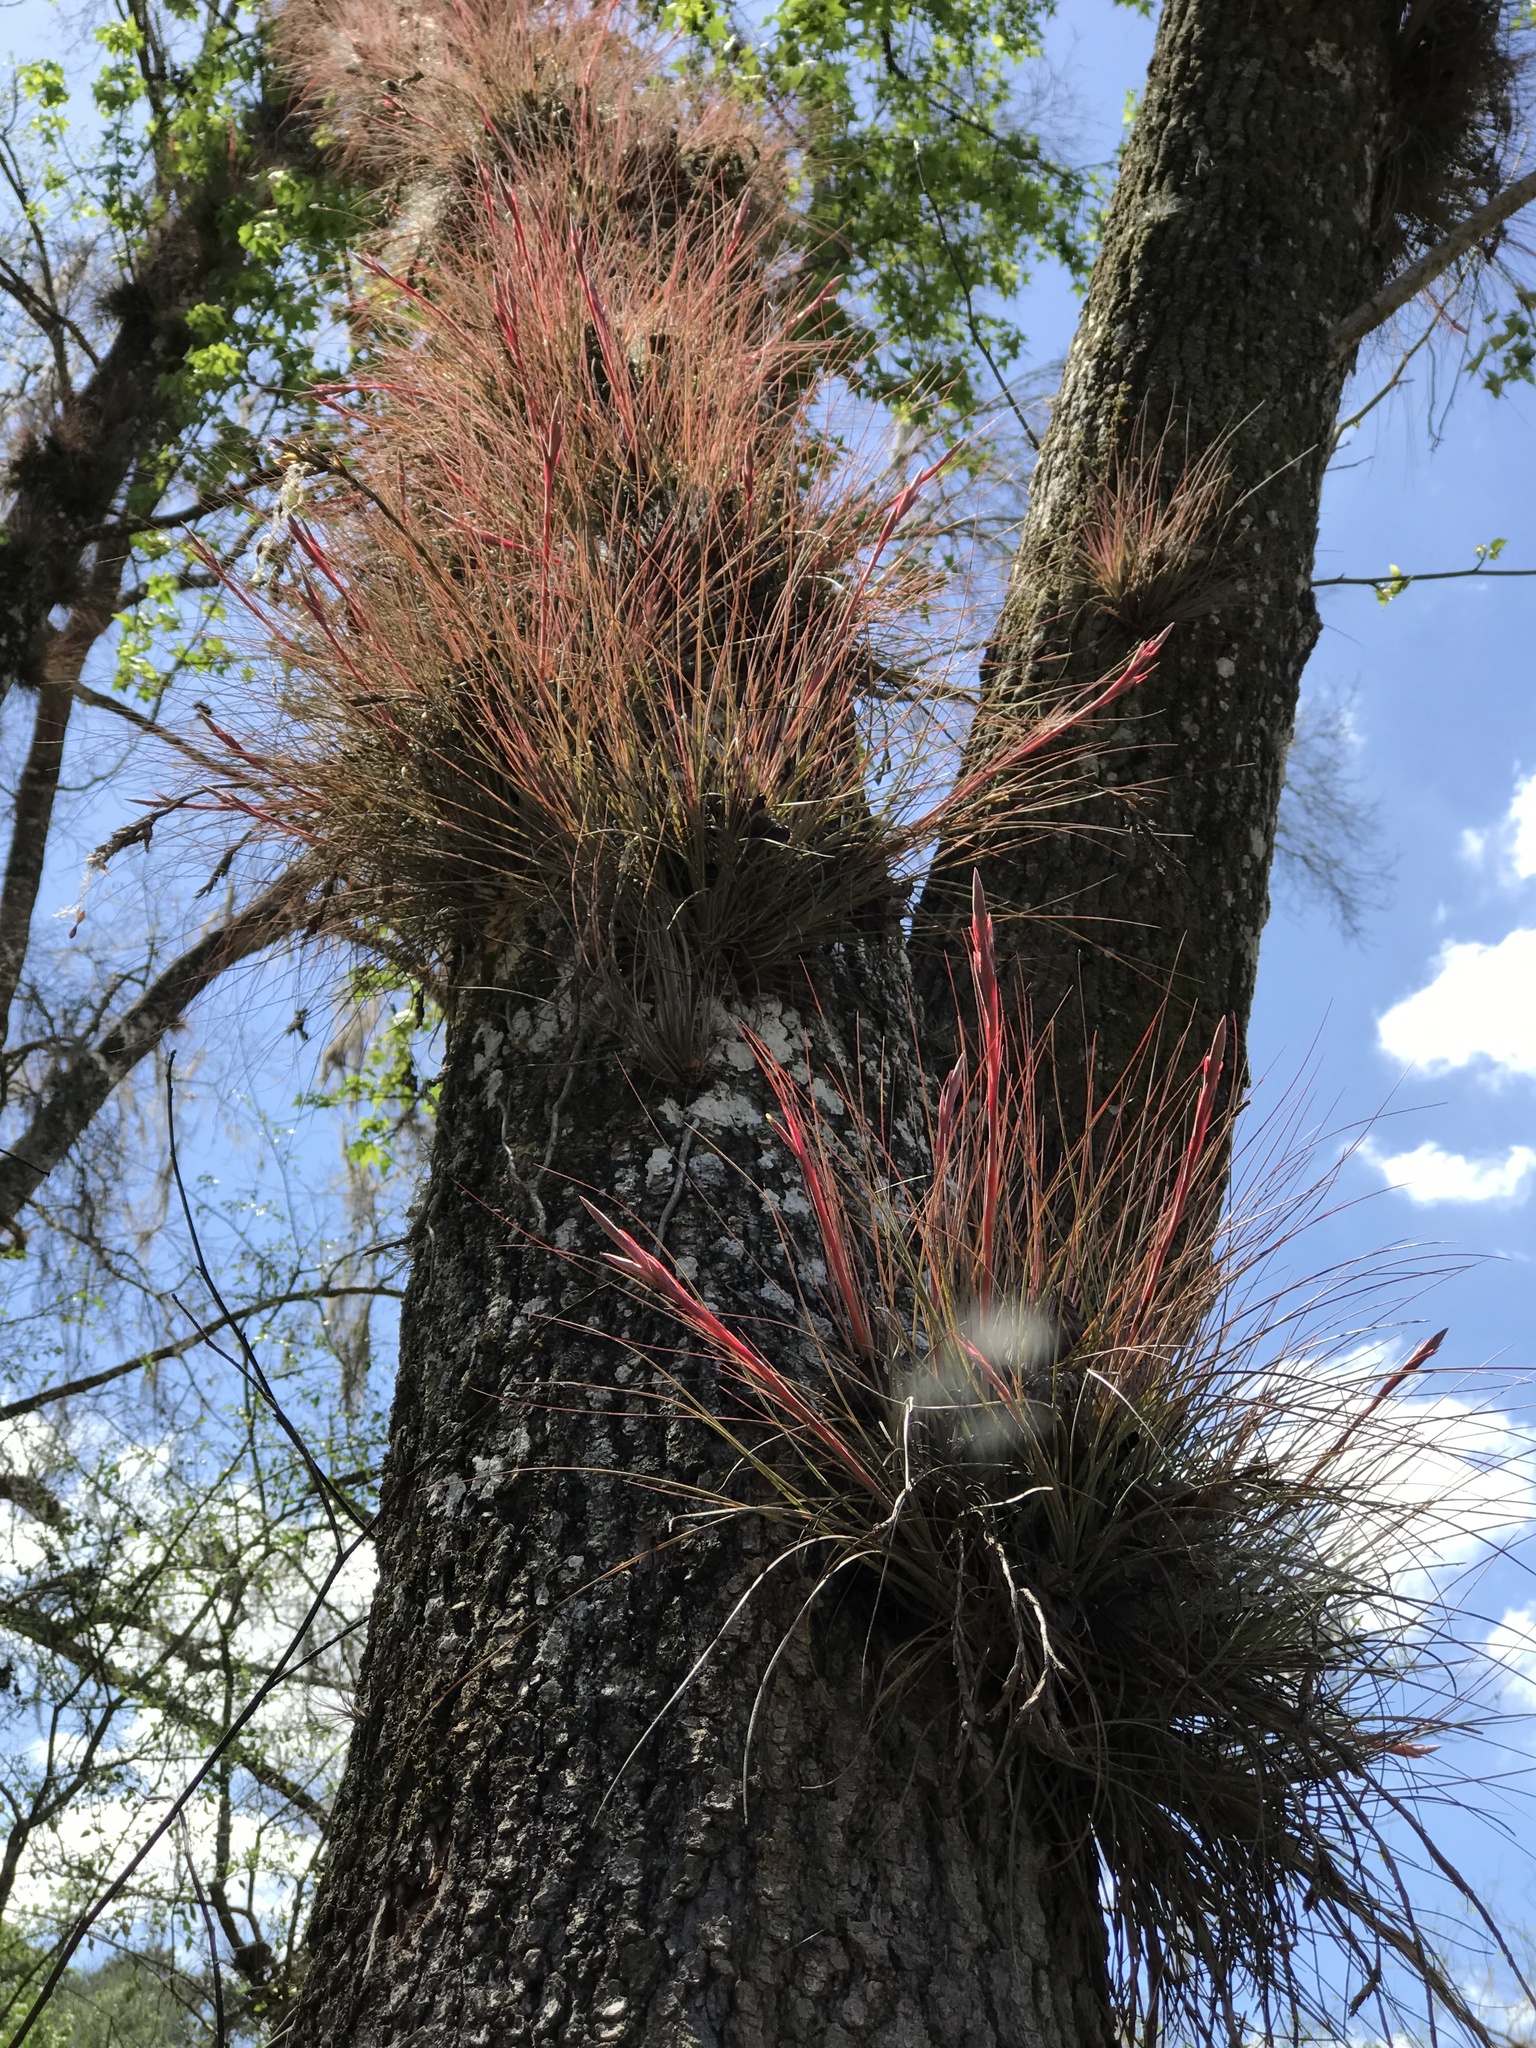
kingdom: Plantae
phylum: Tracheophyta
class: Liliopsida
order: Poales
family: Bromeliaceae
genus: Tillandsia
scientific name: Tillandsia bartramii
